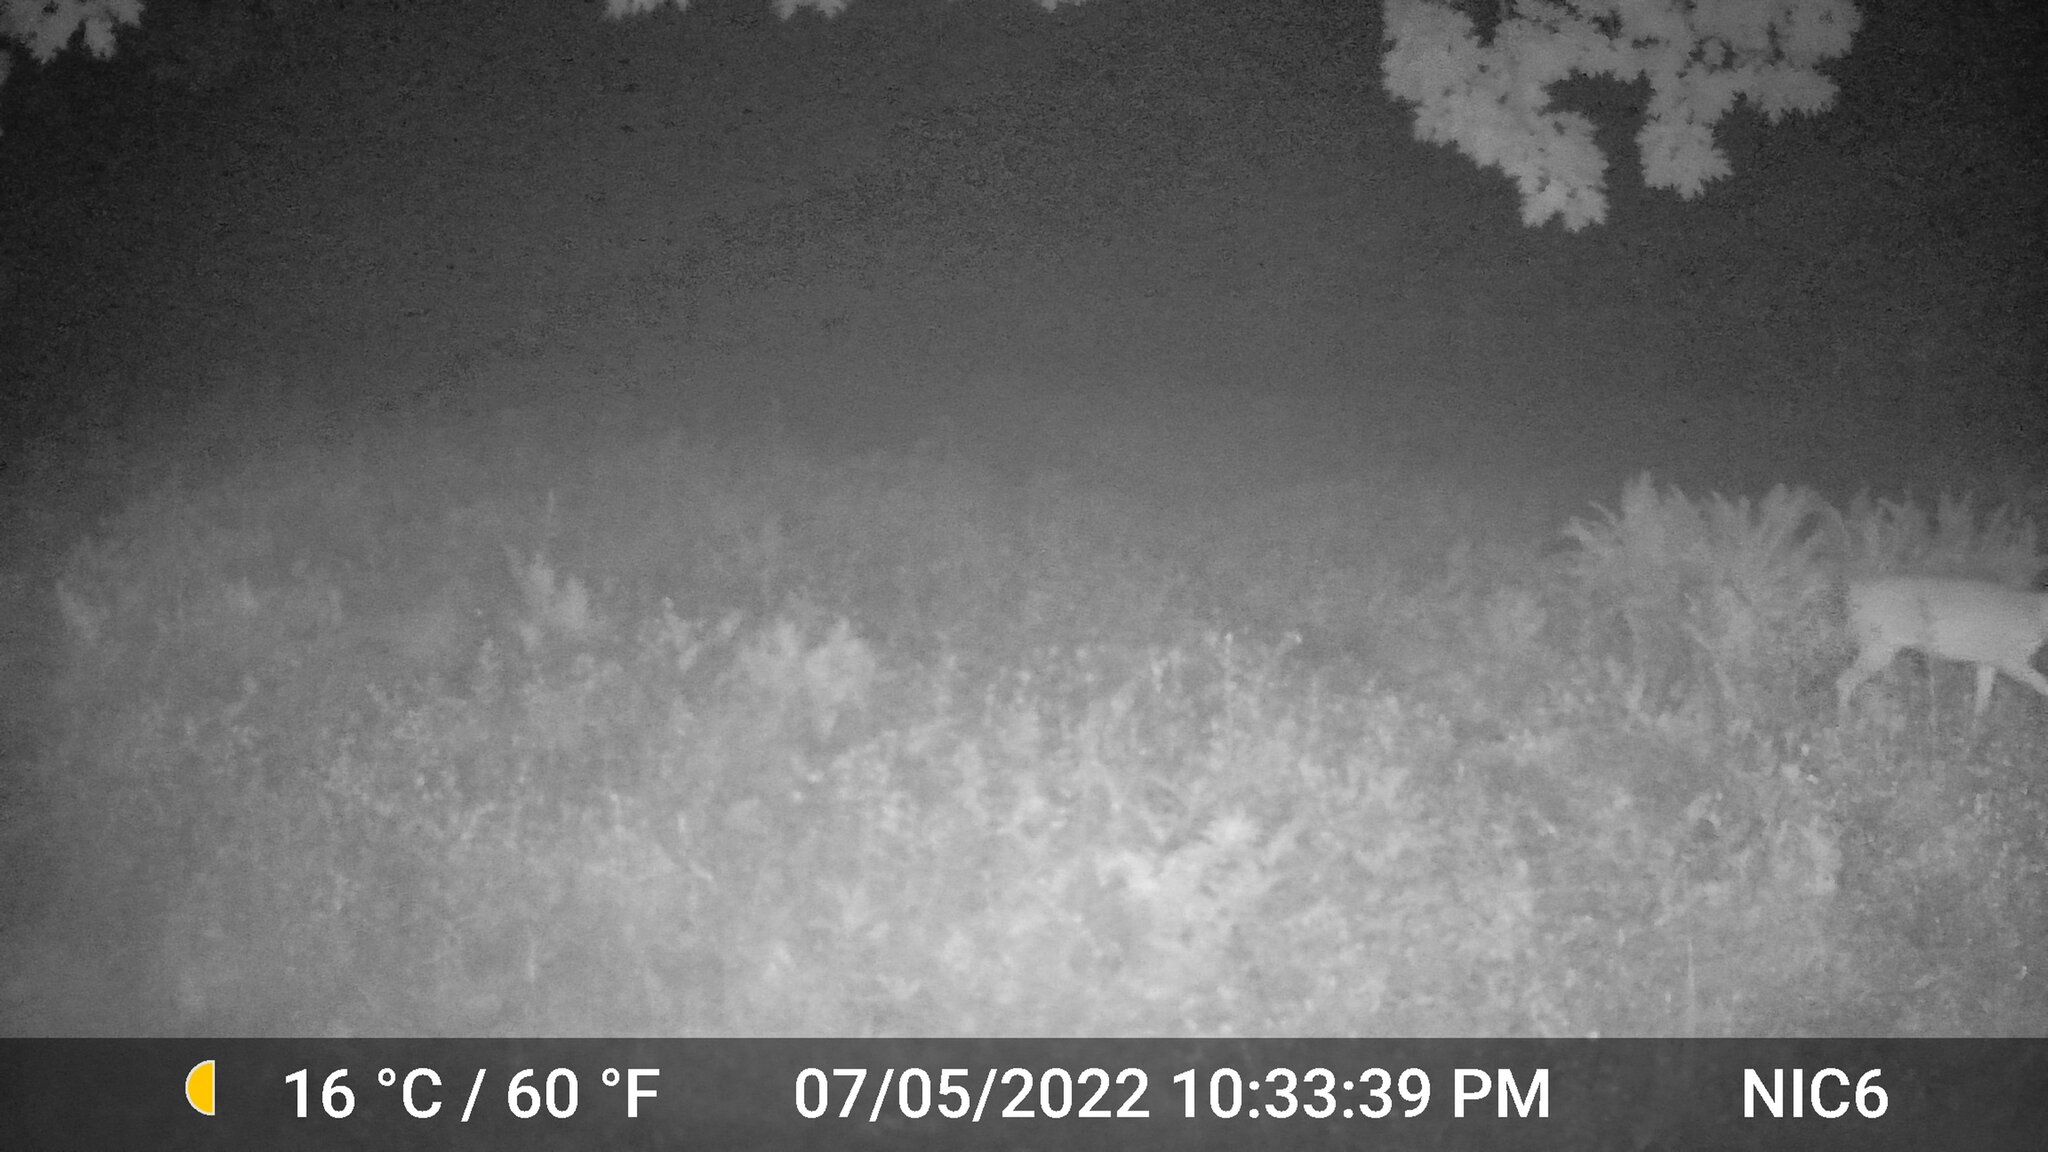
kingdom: Animalia
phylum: Chordata
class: Mammalia
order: Artiodactyla
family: Cervidae
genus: Odocoileus
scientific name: Odocoileus virginianus
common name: White-tailed deer
